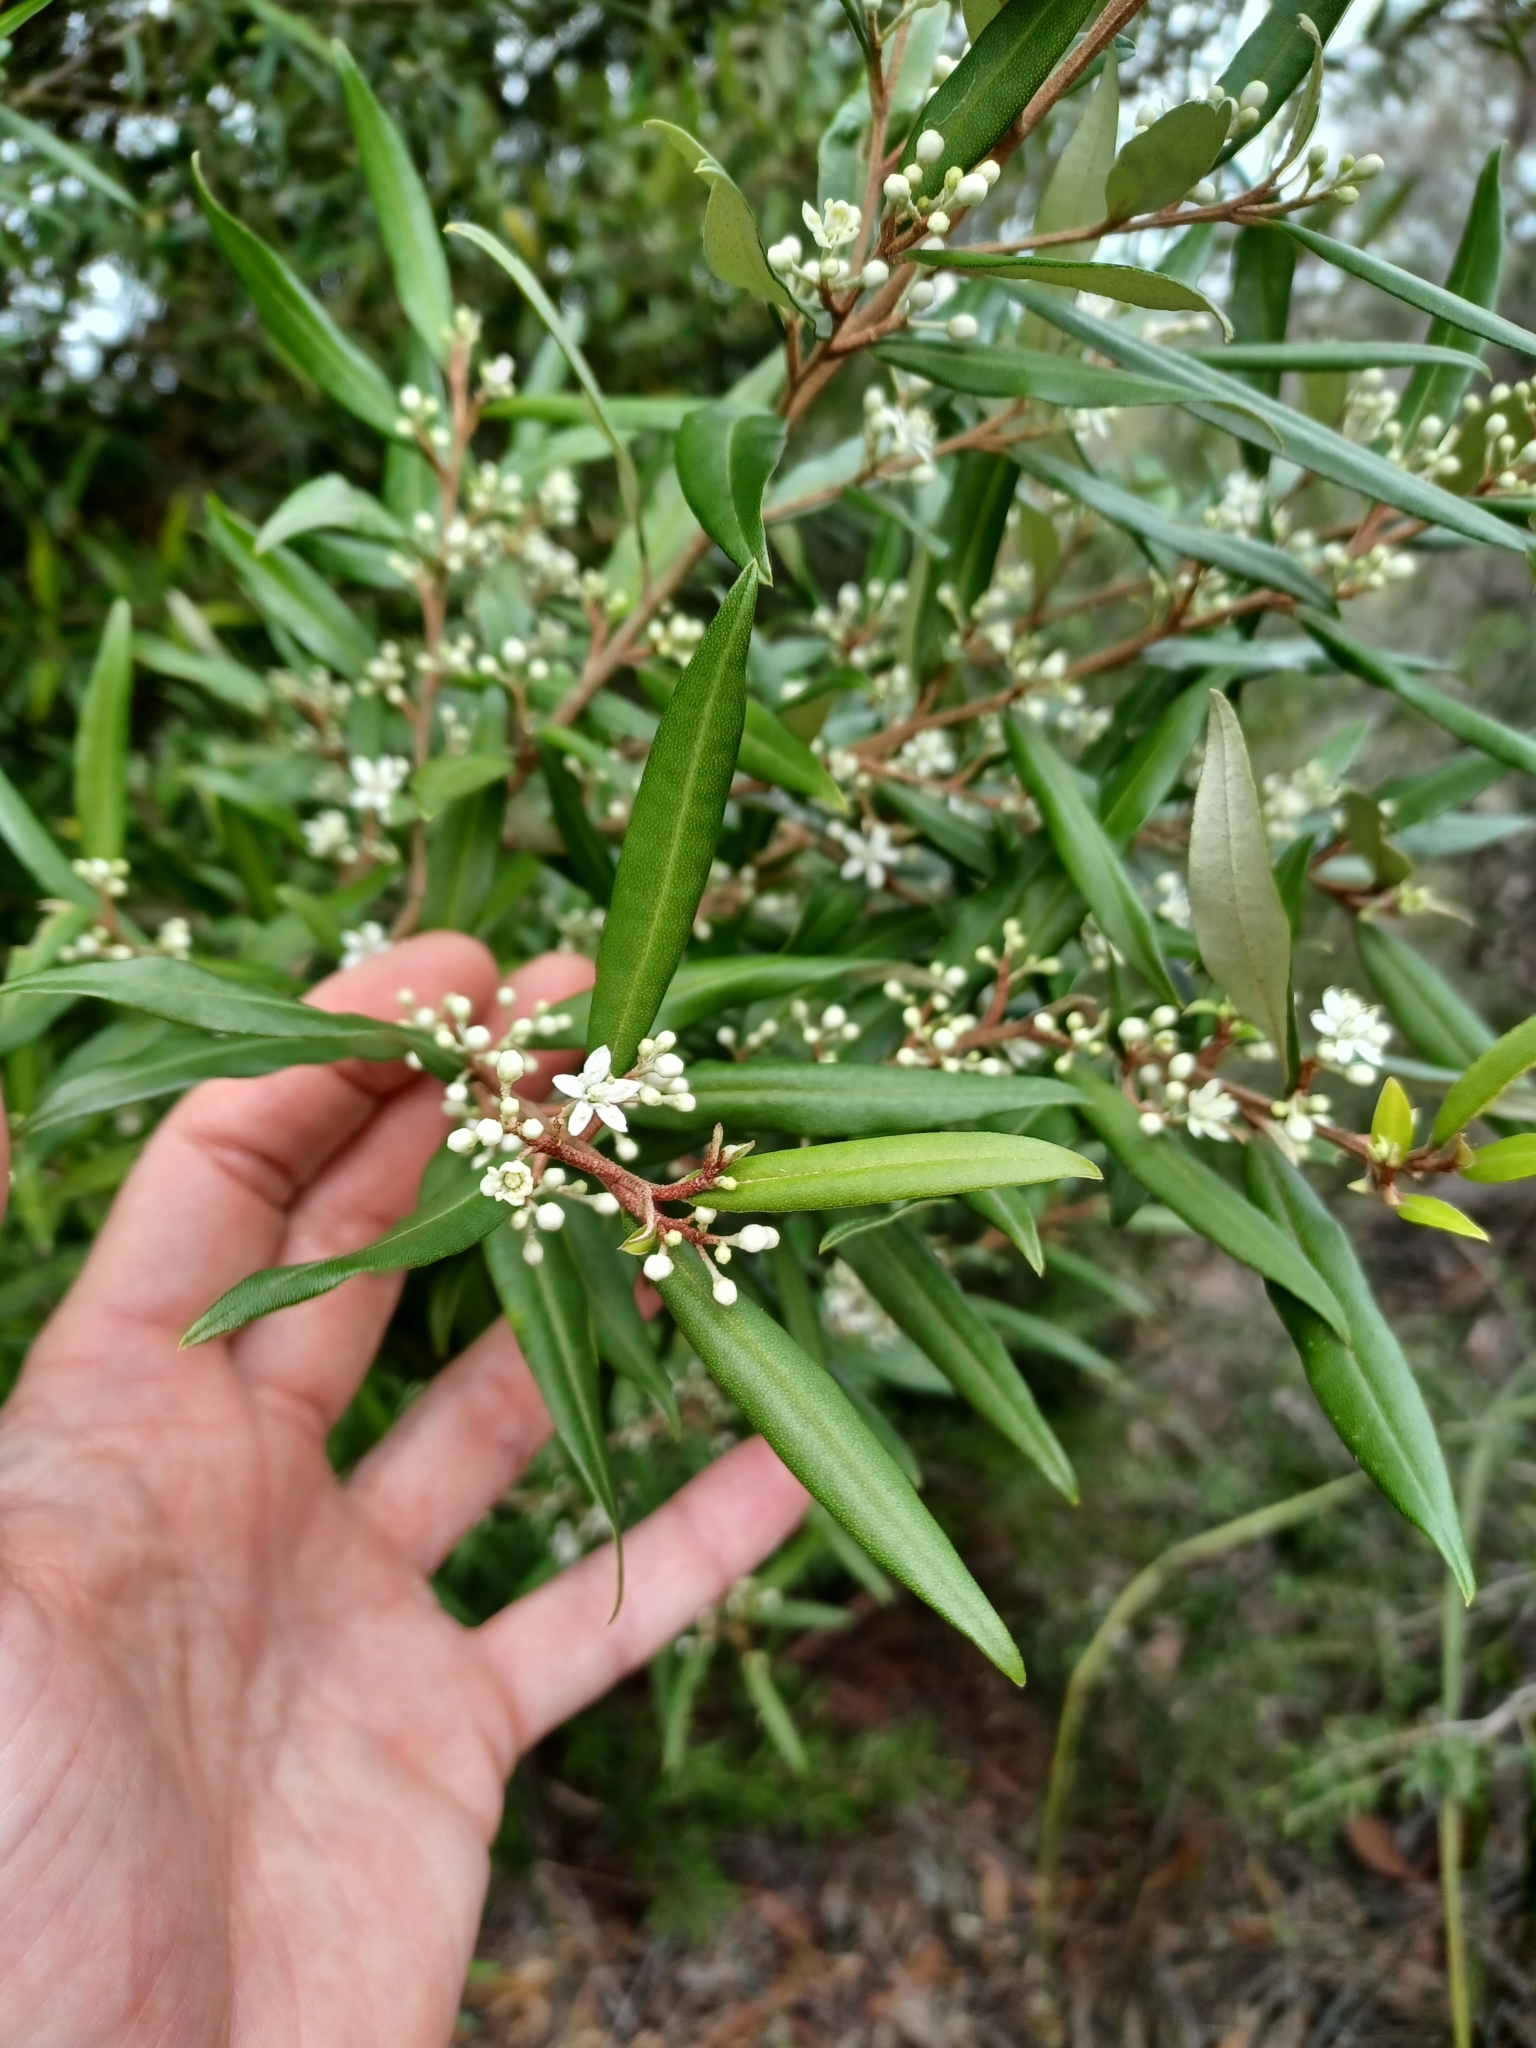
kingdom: Plantae
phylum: Tracheophyta
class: Magnoliopsida
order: Sapindales
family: Rutaceae
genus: Nematolepis
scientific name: Nematolepis squamea
